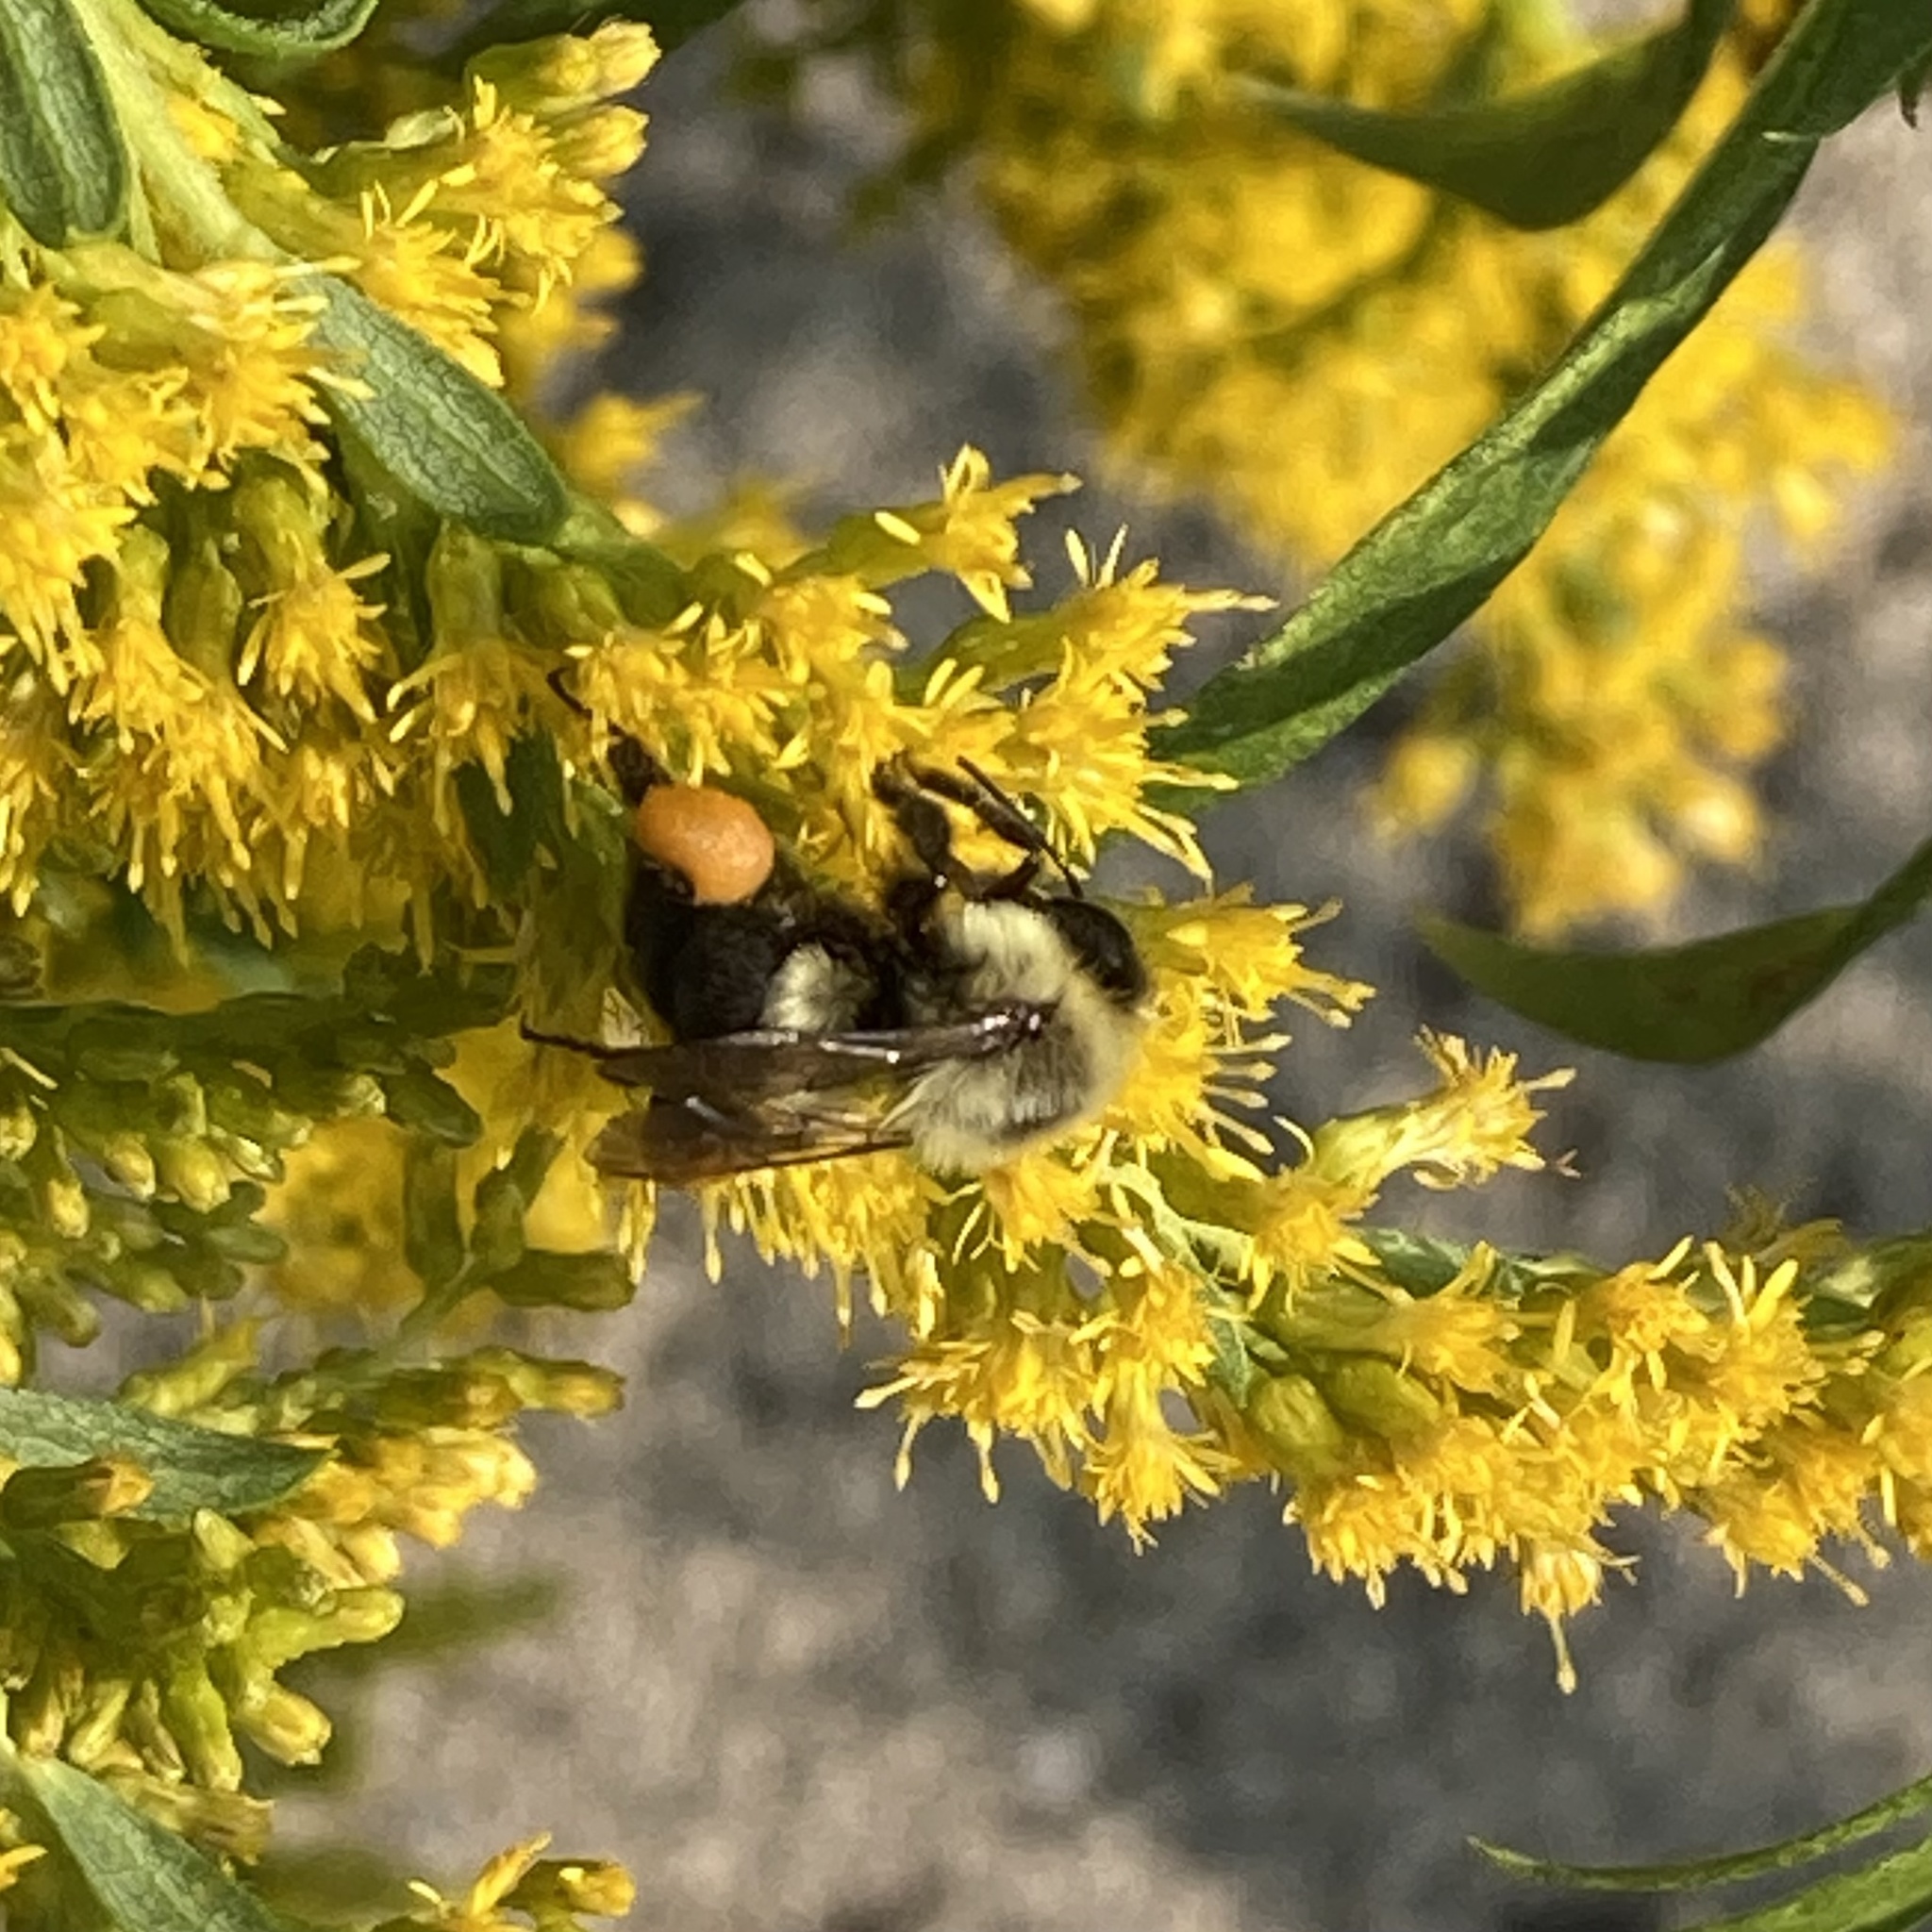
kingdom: Animalia
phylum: Arthropoda
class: Insecta
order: Hymenoptera
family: Apidae
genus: Bombus
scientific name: Bombus impatiens
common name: Common eastern bumble bee
